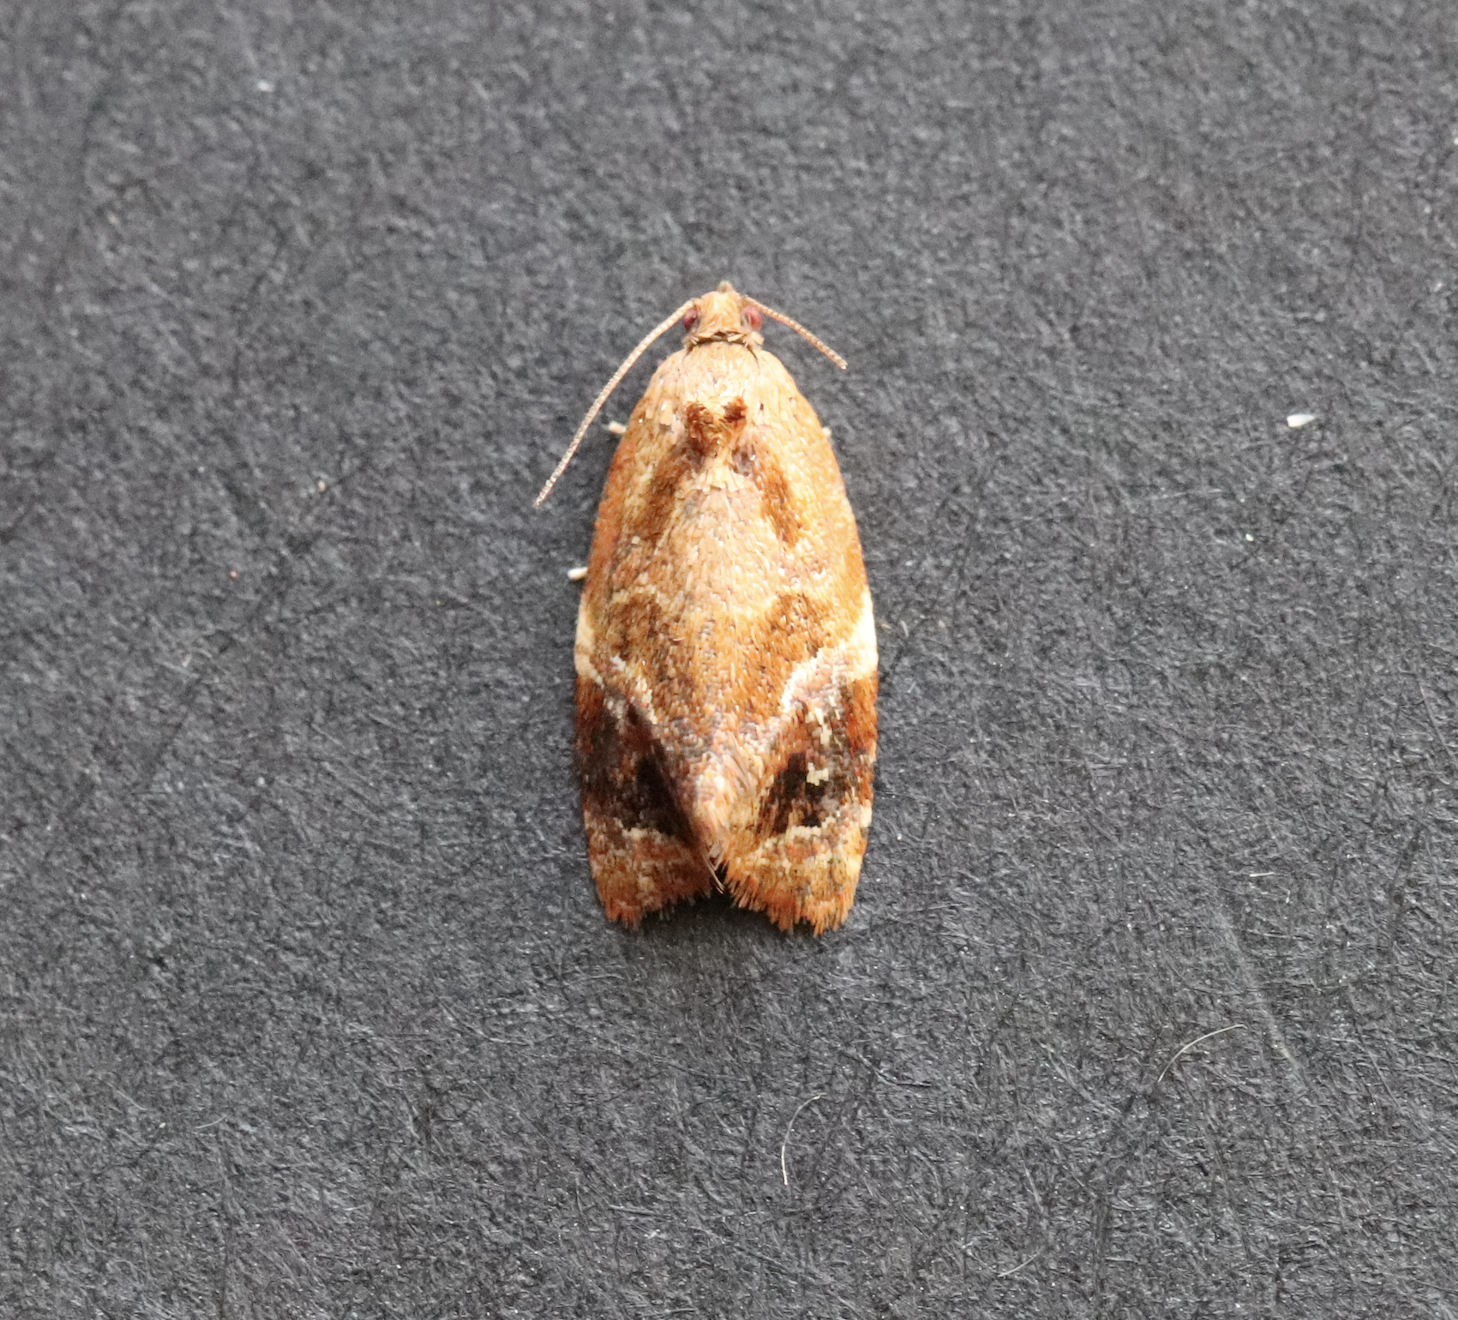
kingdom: Animalia
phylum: Arthropoda
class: Insecta
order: Lepidoptera
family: Tortricidae
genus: Ditula
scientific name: Ditula angustiorana
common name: Red-barred tortrix
